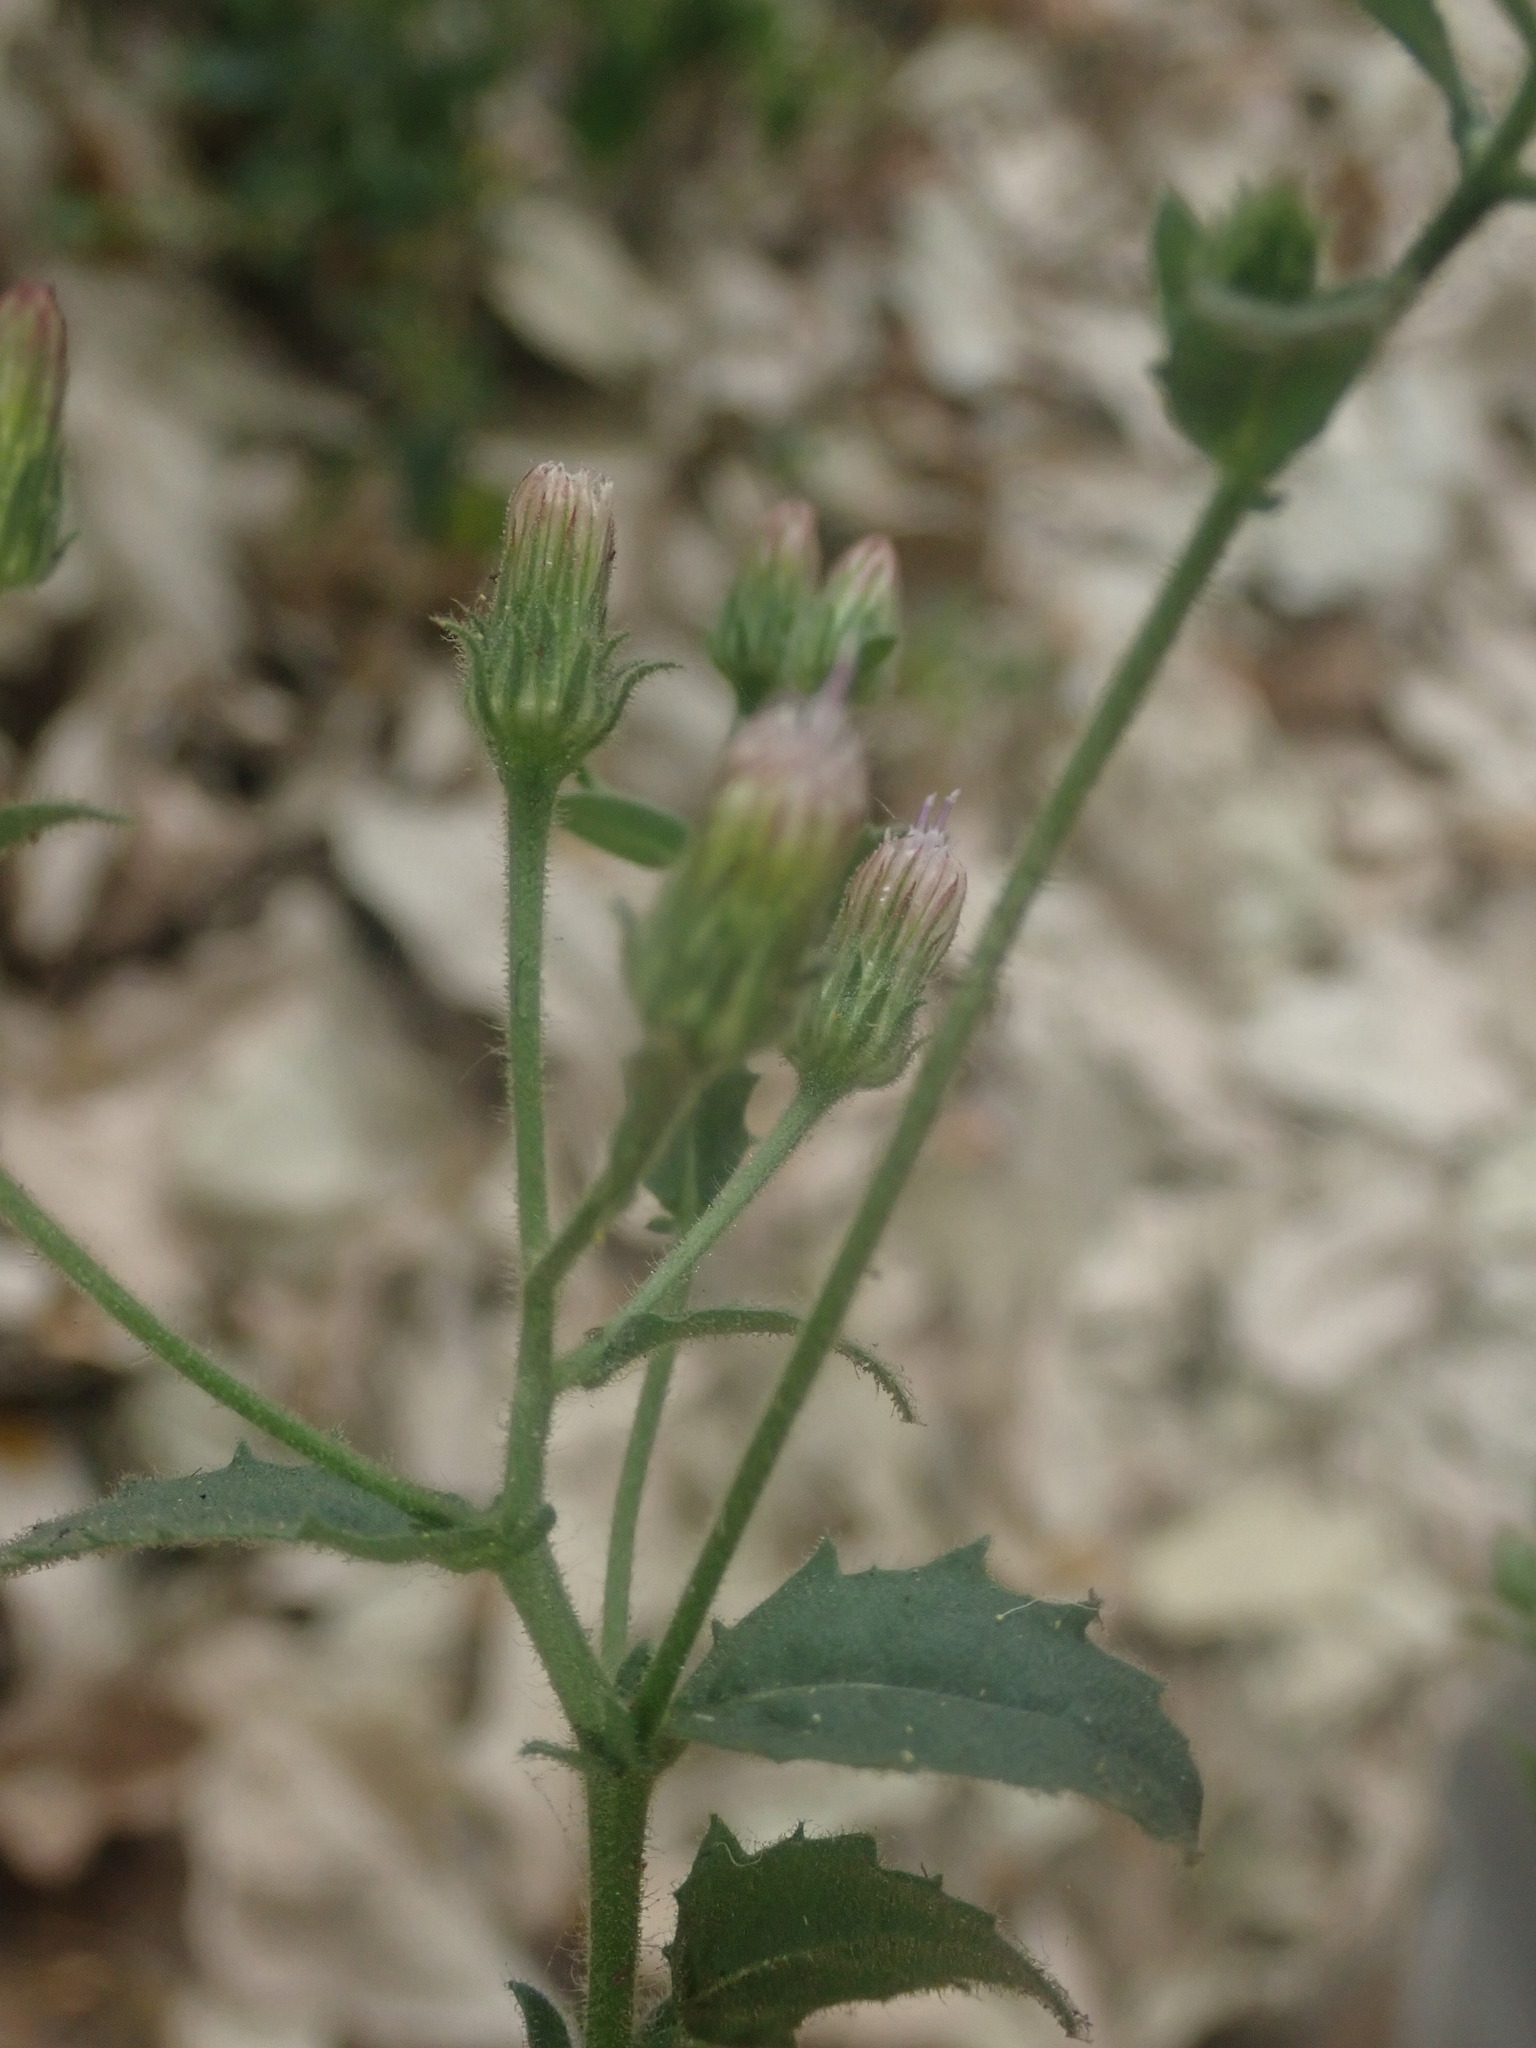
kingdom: Plantae
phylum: Tracheophyta
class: Magnoliopsida
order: Asterales
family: Asteraceae
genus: Pseudoconyza
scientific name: Pseudoconyza viscosa
